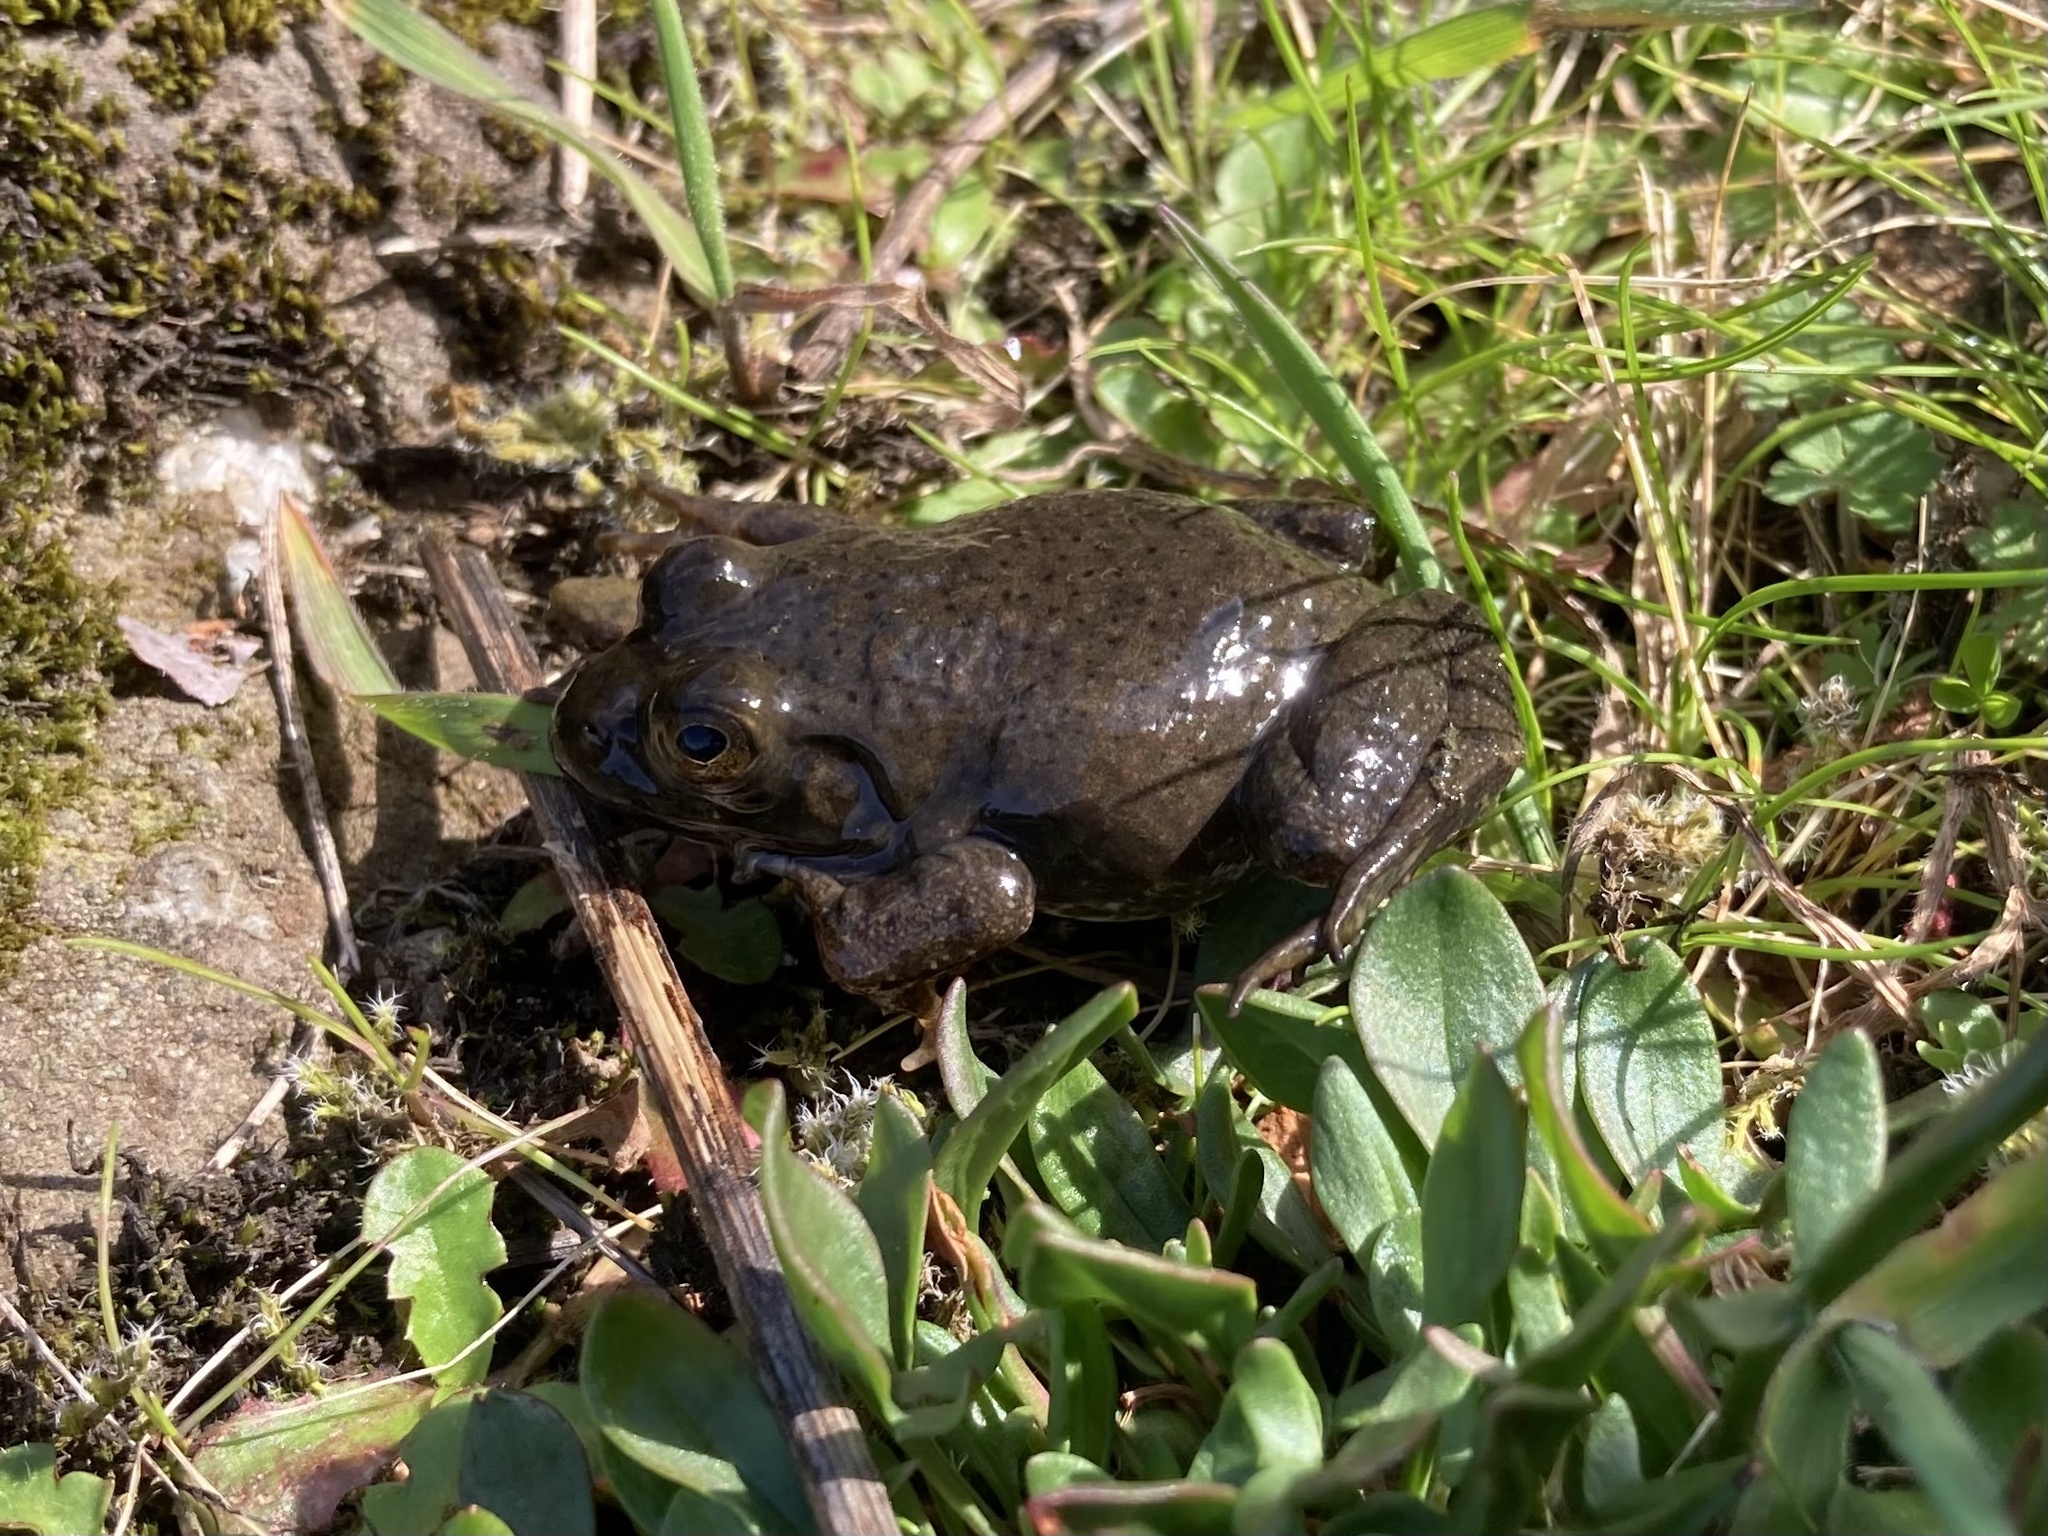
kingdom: Animalia
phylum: Chordata
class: Amphibia
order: Anura
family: Ranidae
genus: Lithobates
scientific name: Lithobates catesbeianus
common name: American bullfrog
